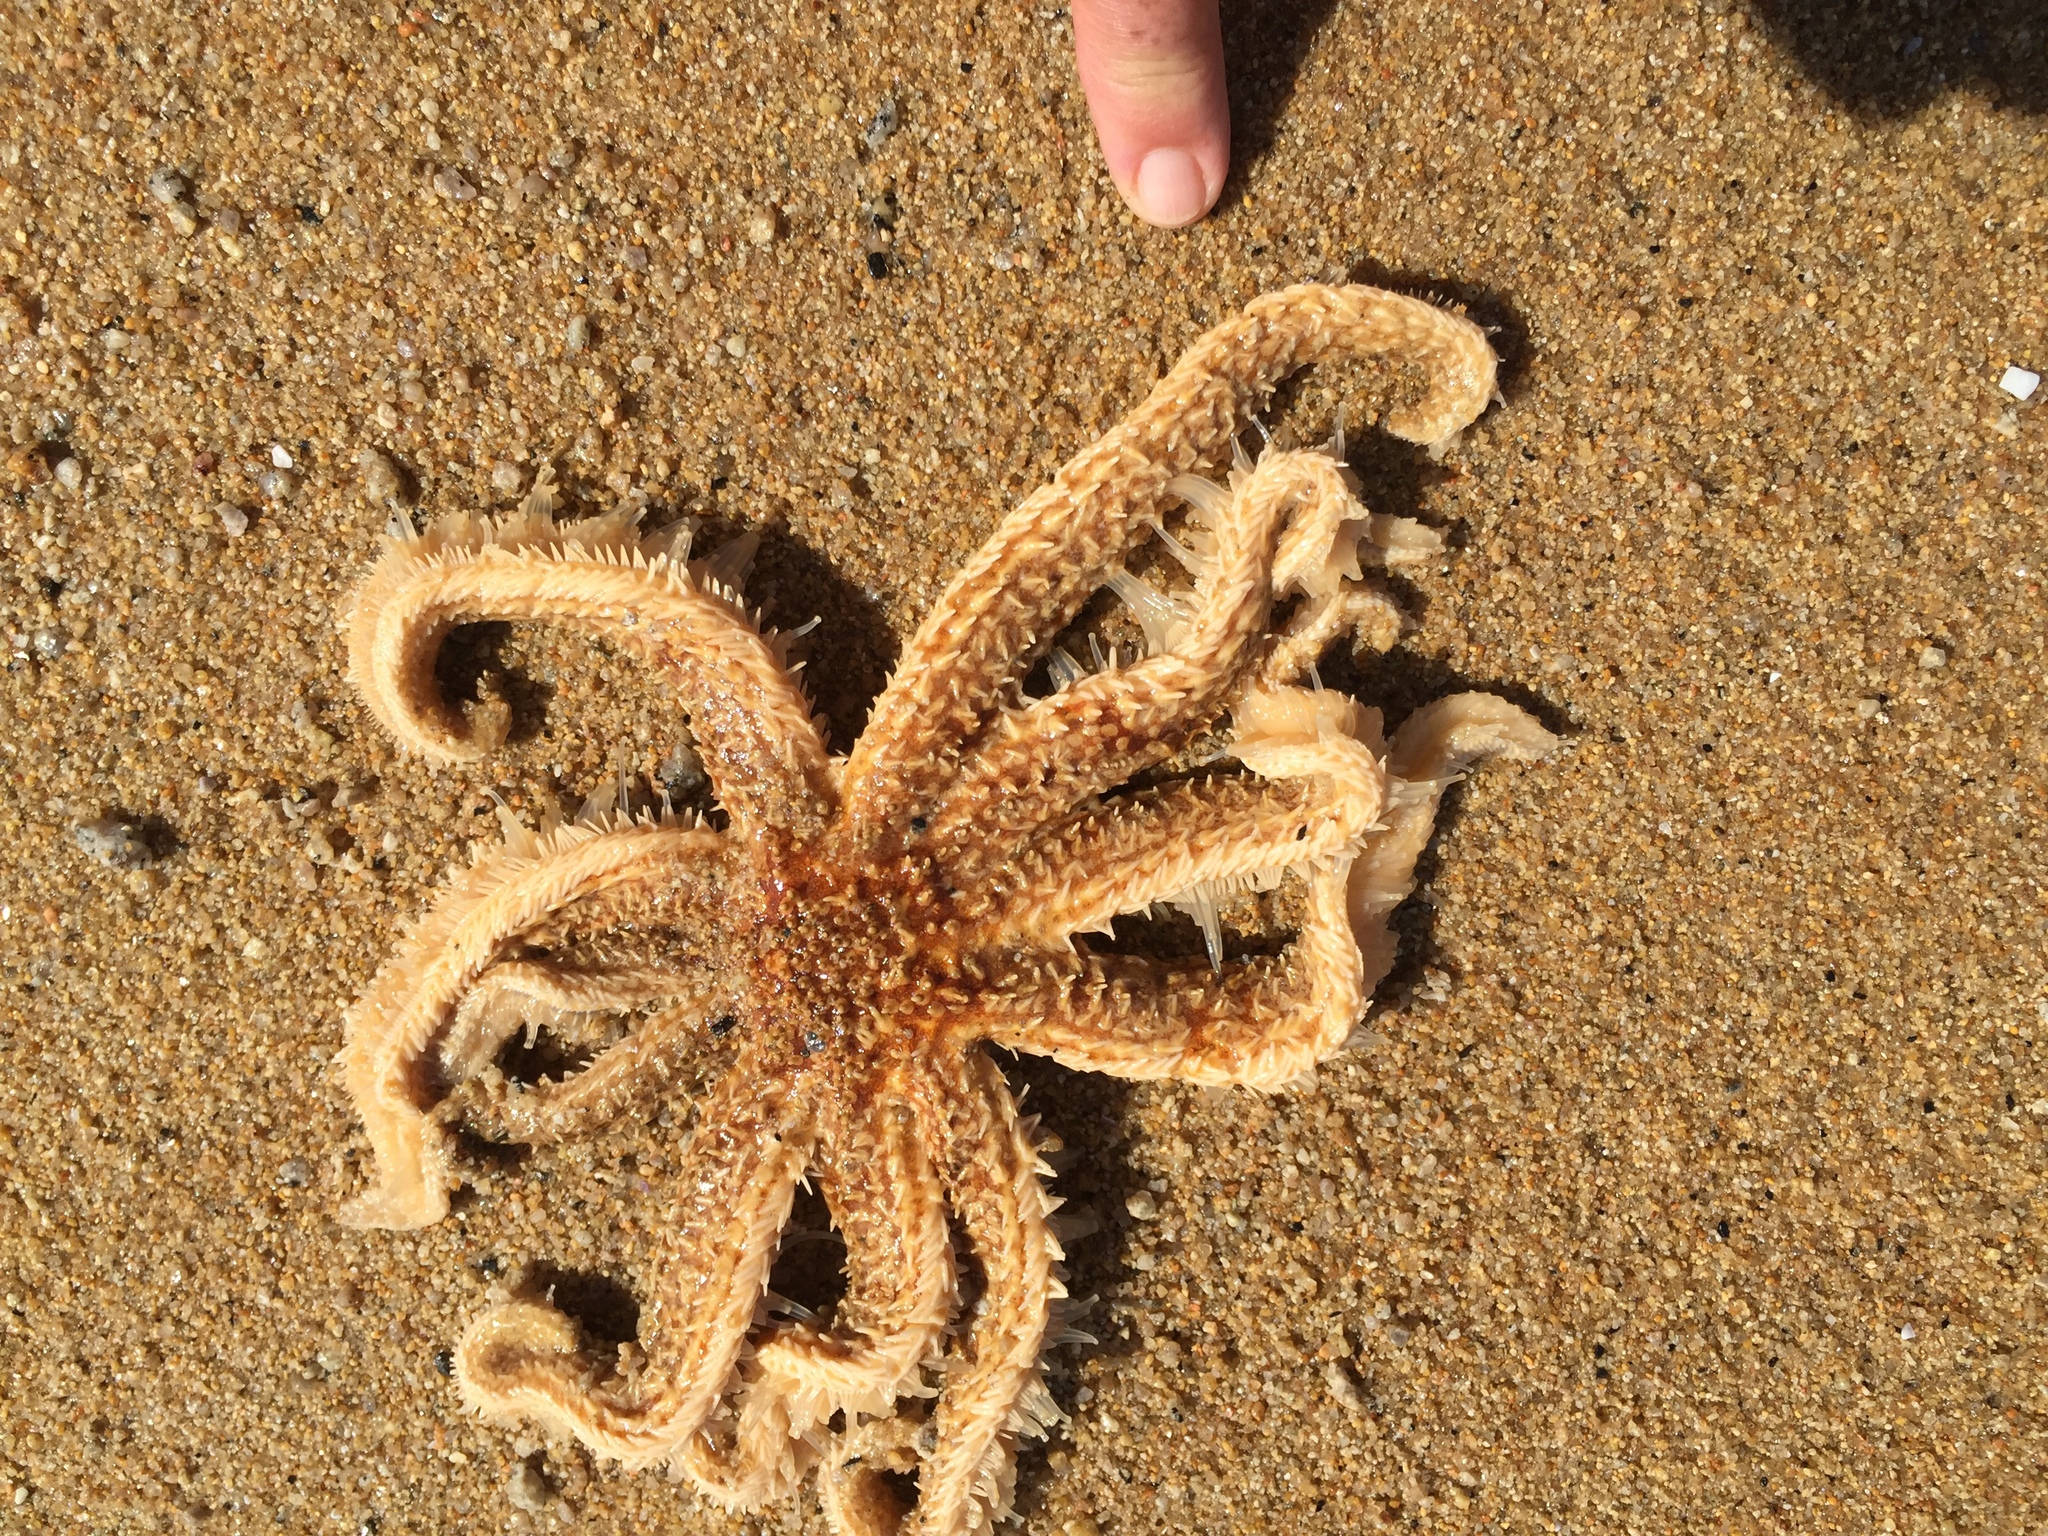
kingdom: Animalia
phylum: Echinodermata
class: Asteroidea
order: Forcipulatida
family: Asteriidae
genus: Coscinasterias
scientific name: Coscinasterias muricata
